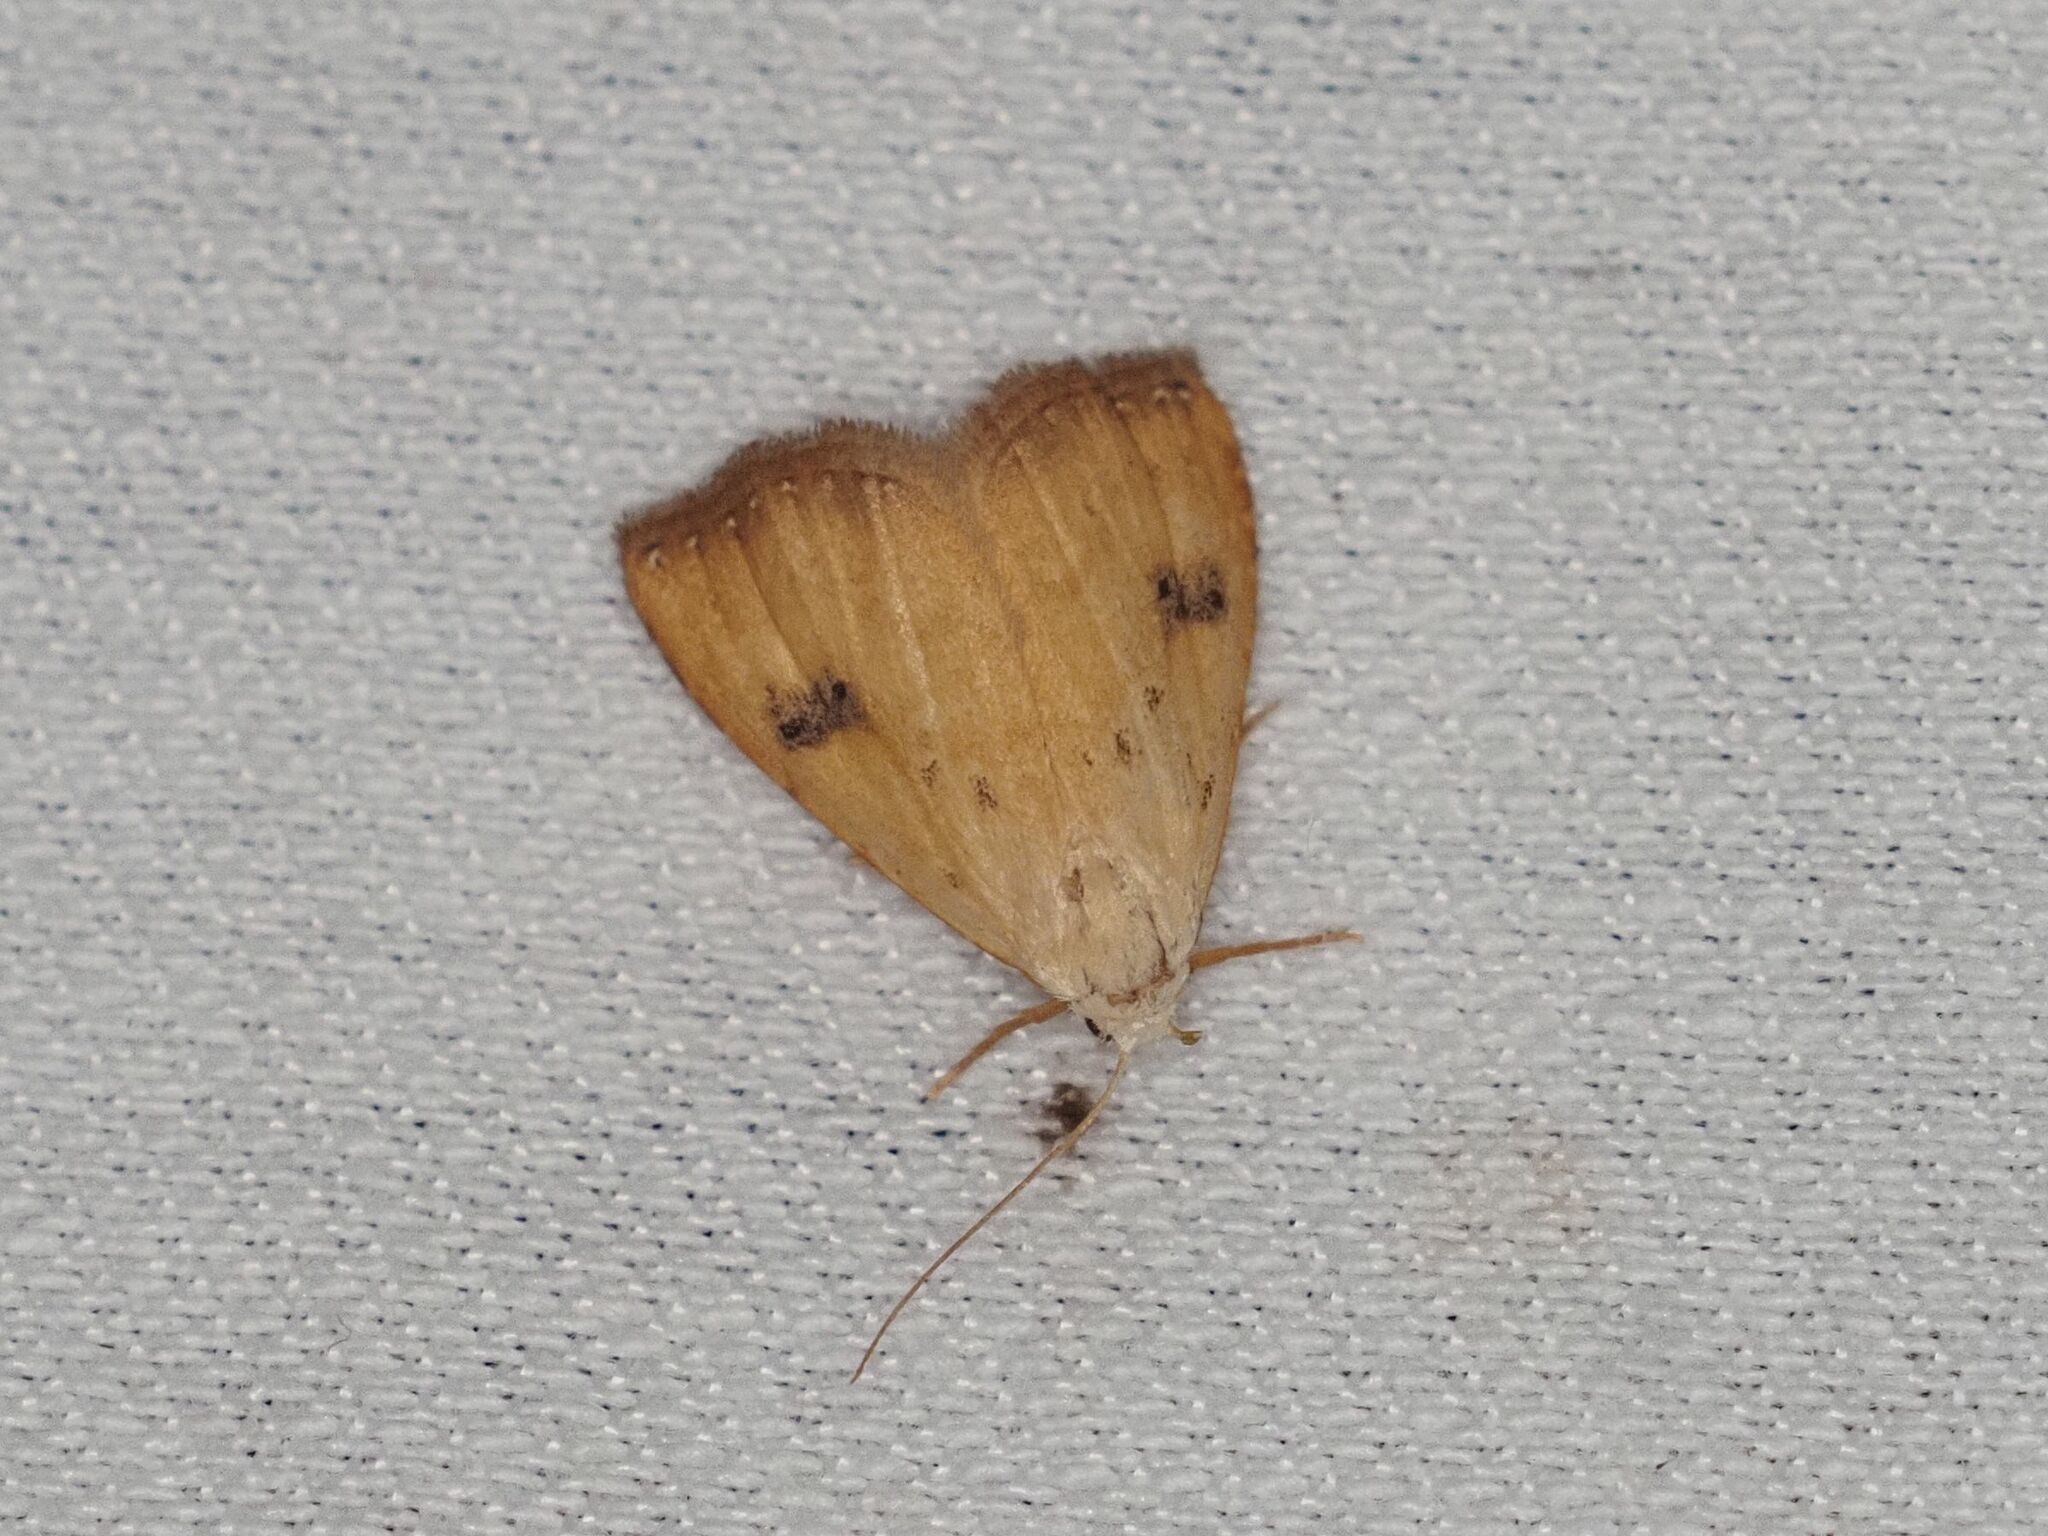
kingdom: Animalia
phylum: Arthropoda
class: Insecta
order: Lepidoptera
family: Erebidae
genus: Rivula
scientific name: Rivula sericealis
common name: Straw dot
